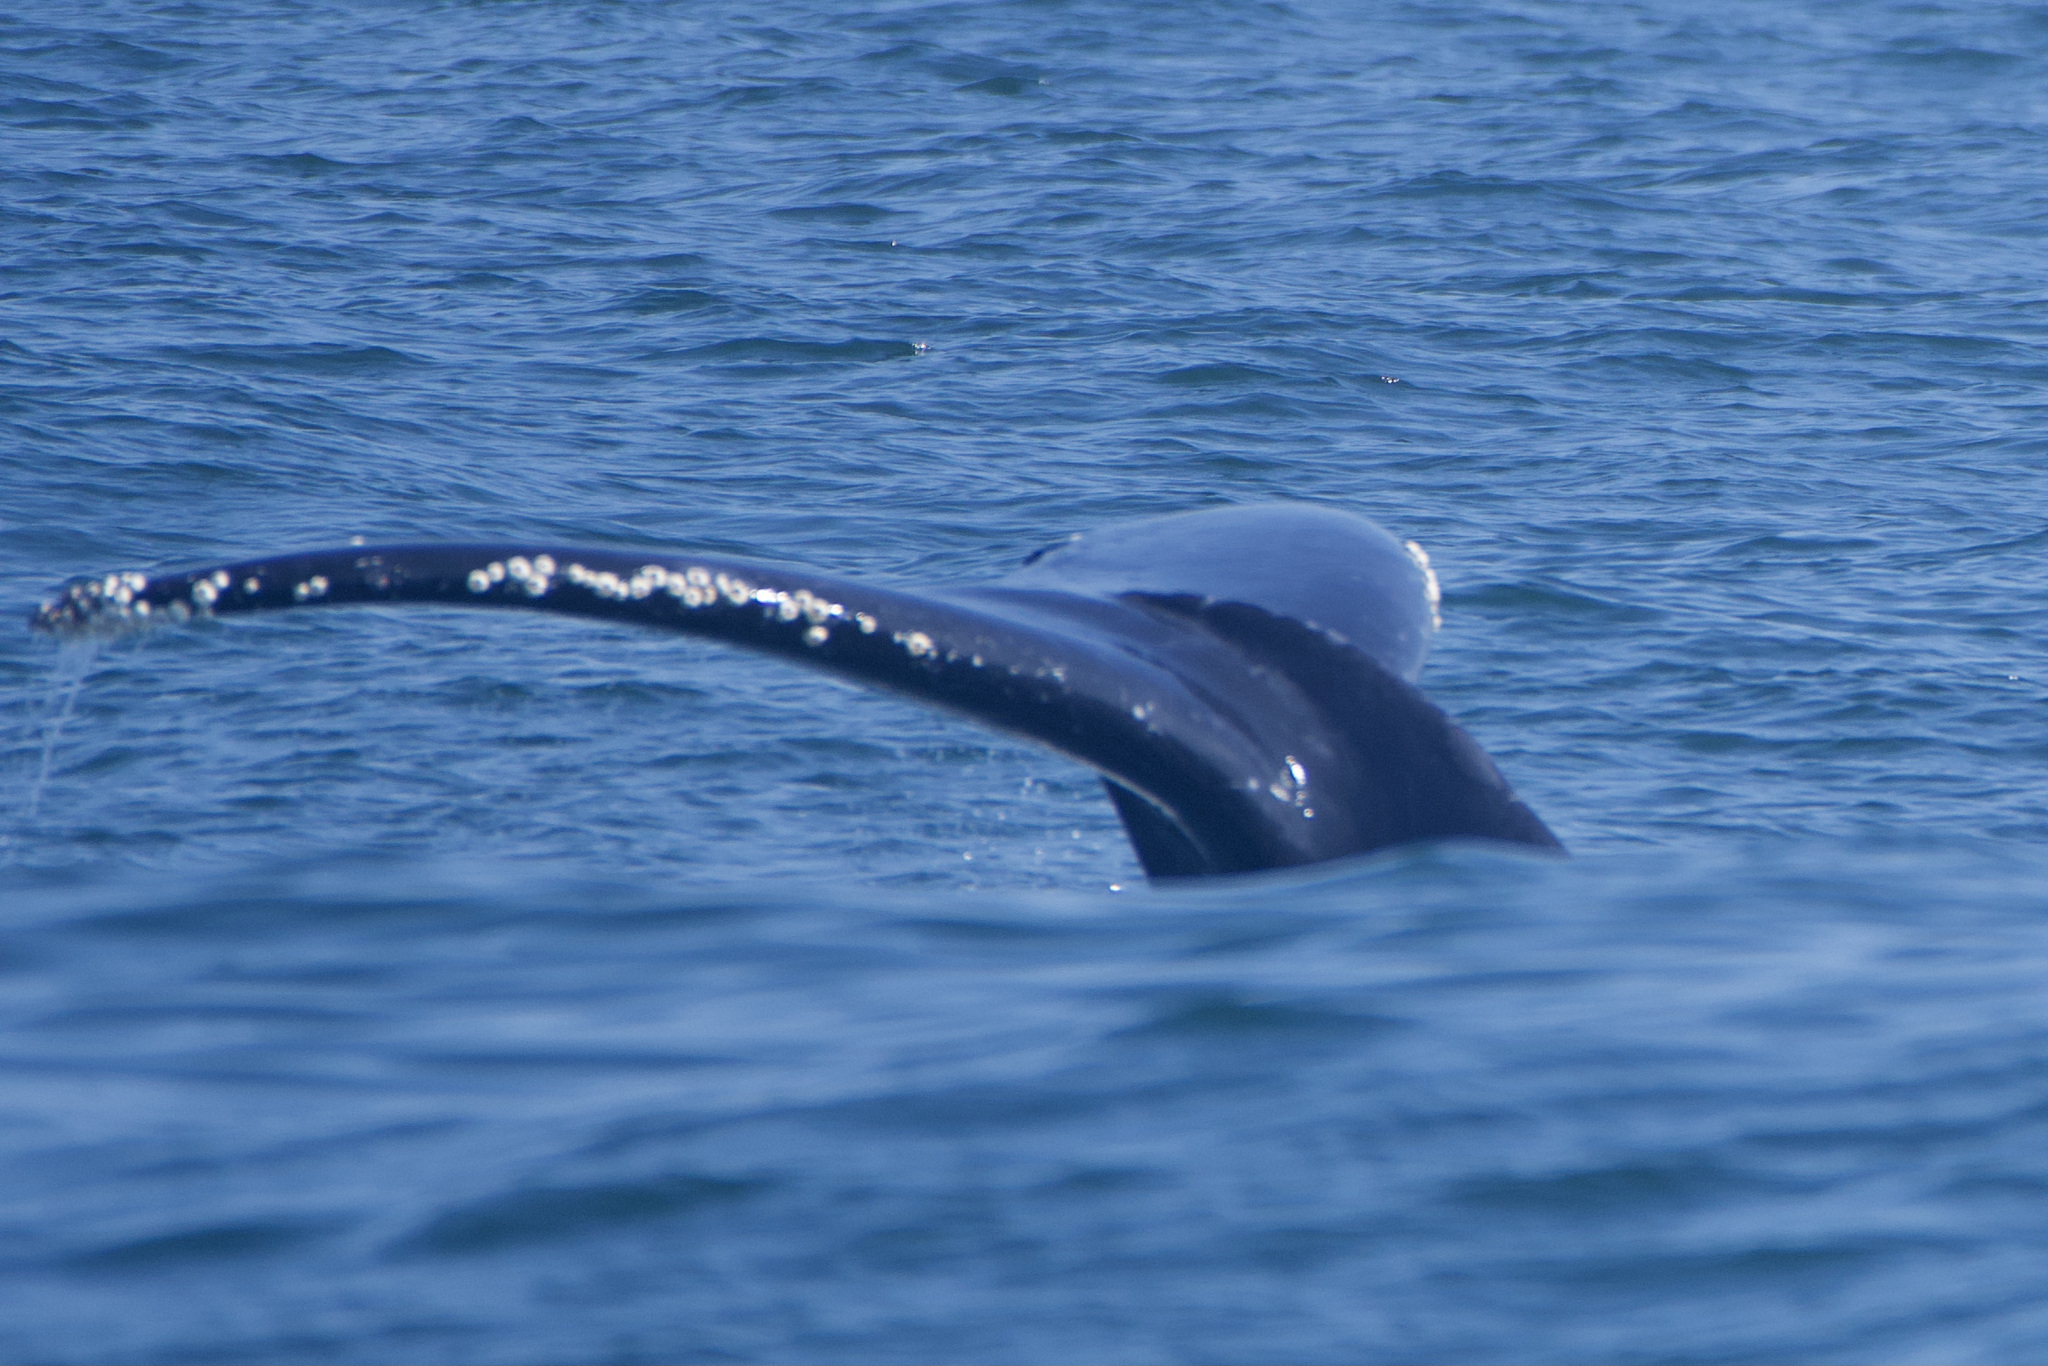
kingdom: Animalia
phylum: Chordata
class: Mammalia
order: Cetacea
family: Balaenopteridae
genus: Megaptera
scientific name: Megaptera novaeangliae
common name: Humpback whale
